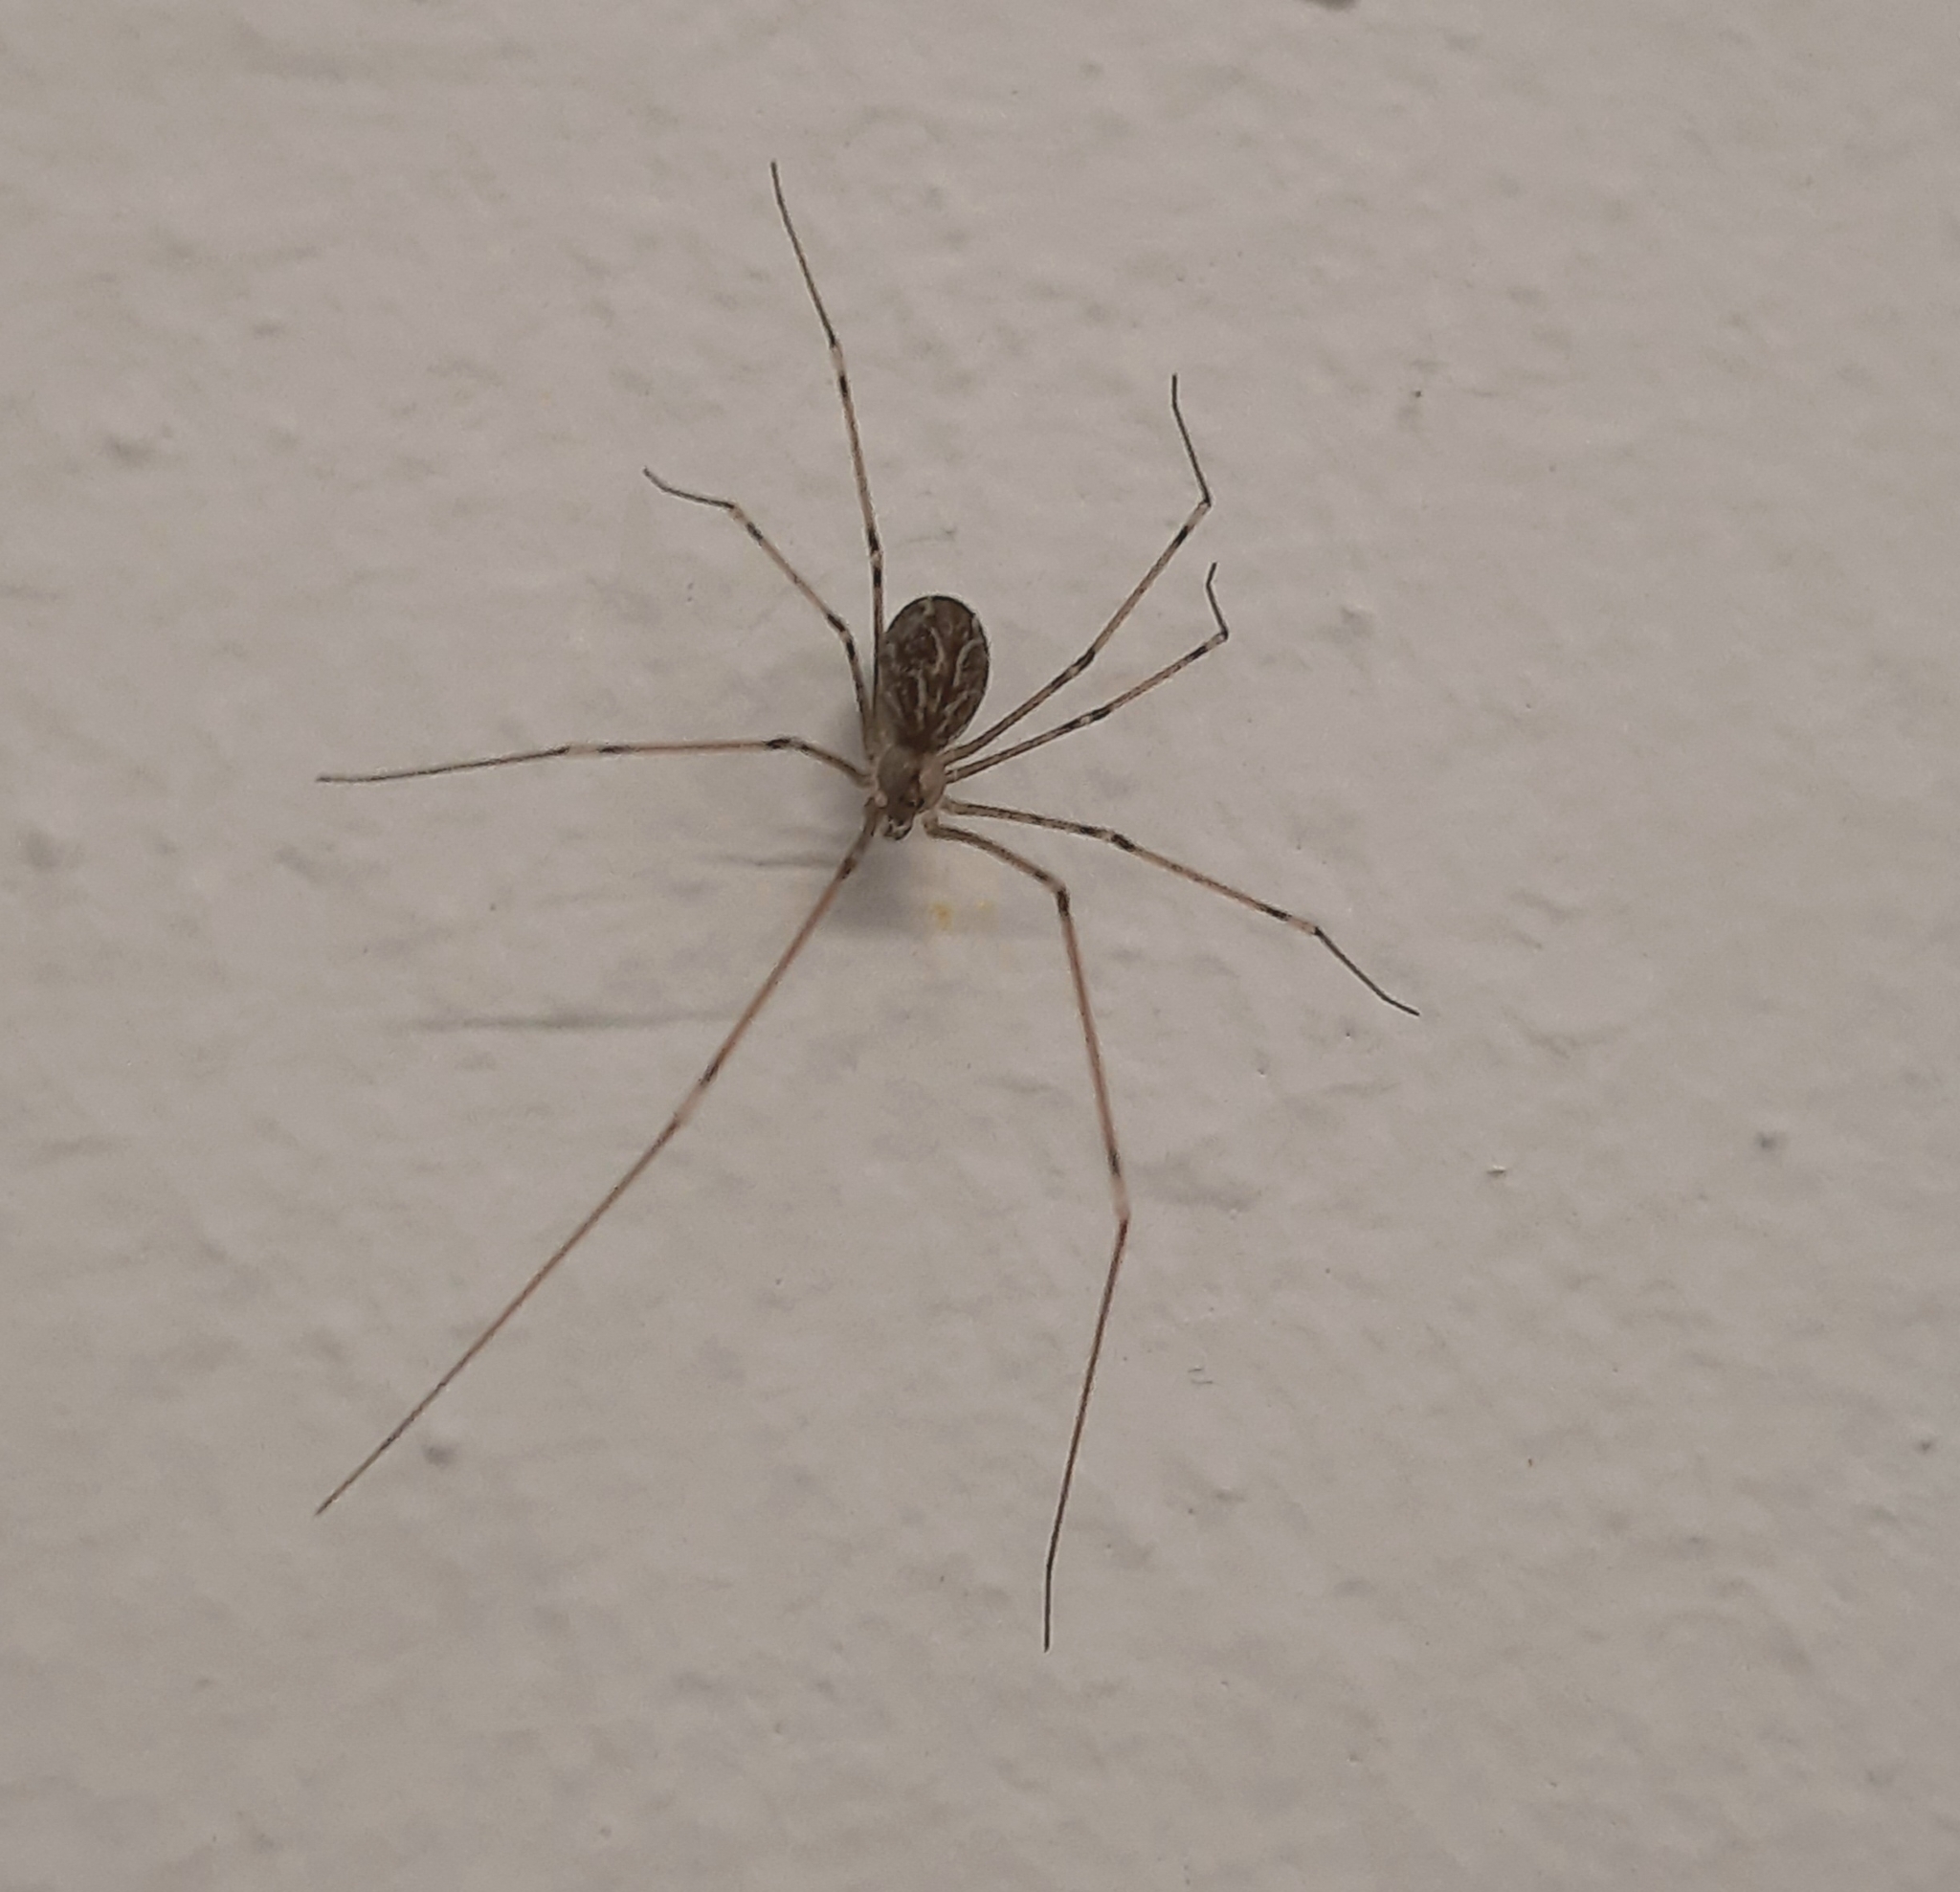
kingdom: Animalia
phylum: Arthropoda
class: Arachnida
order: Araneae
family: Pholcidae
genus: Holocnemus
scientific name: Holocnemus pluchei
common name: Marbled cellar spider
